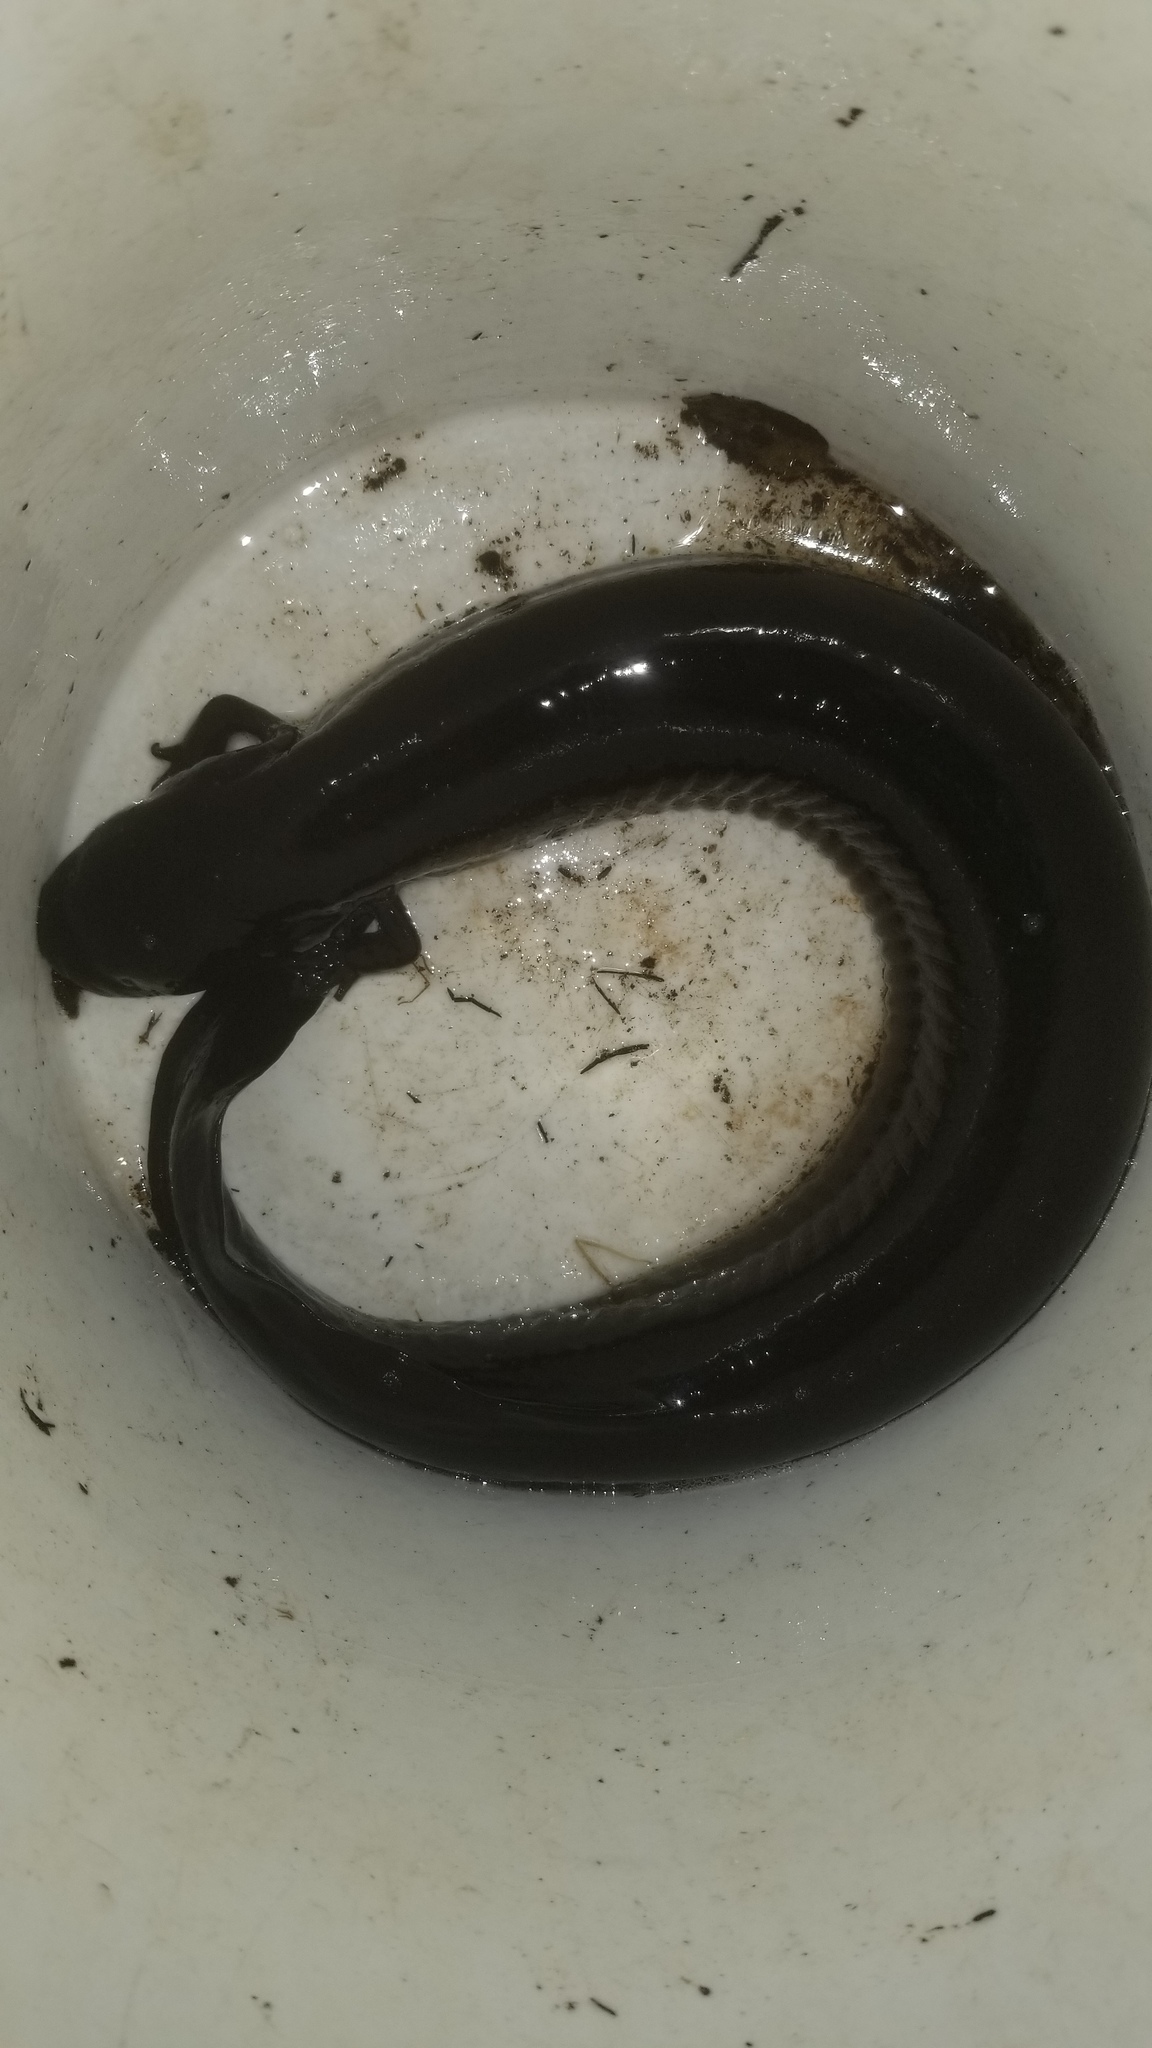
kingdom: Animalia
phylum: Chordata
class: Amphibia
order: Caudata
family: Sirenidae
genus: Siren
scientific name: Siren lacertina
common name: Greater siren
